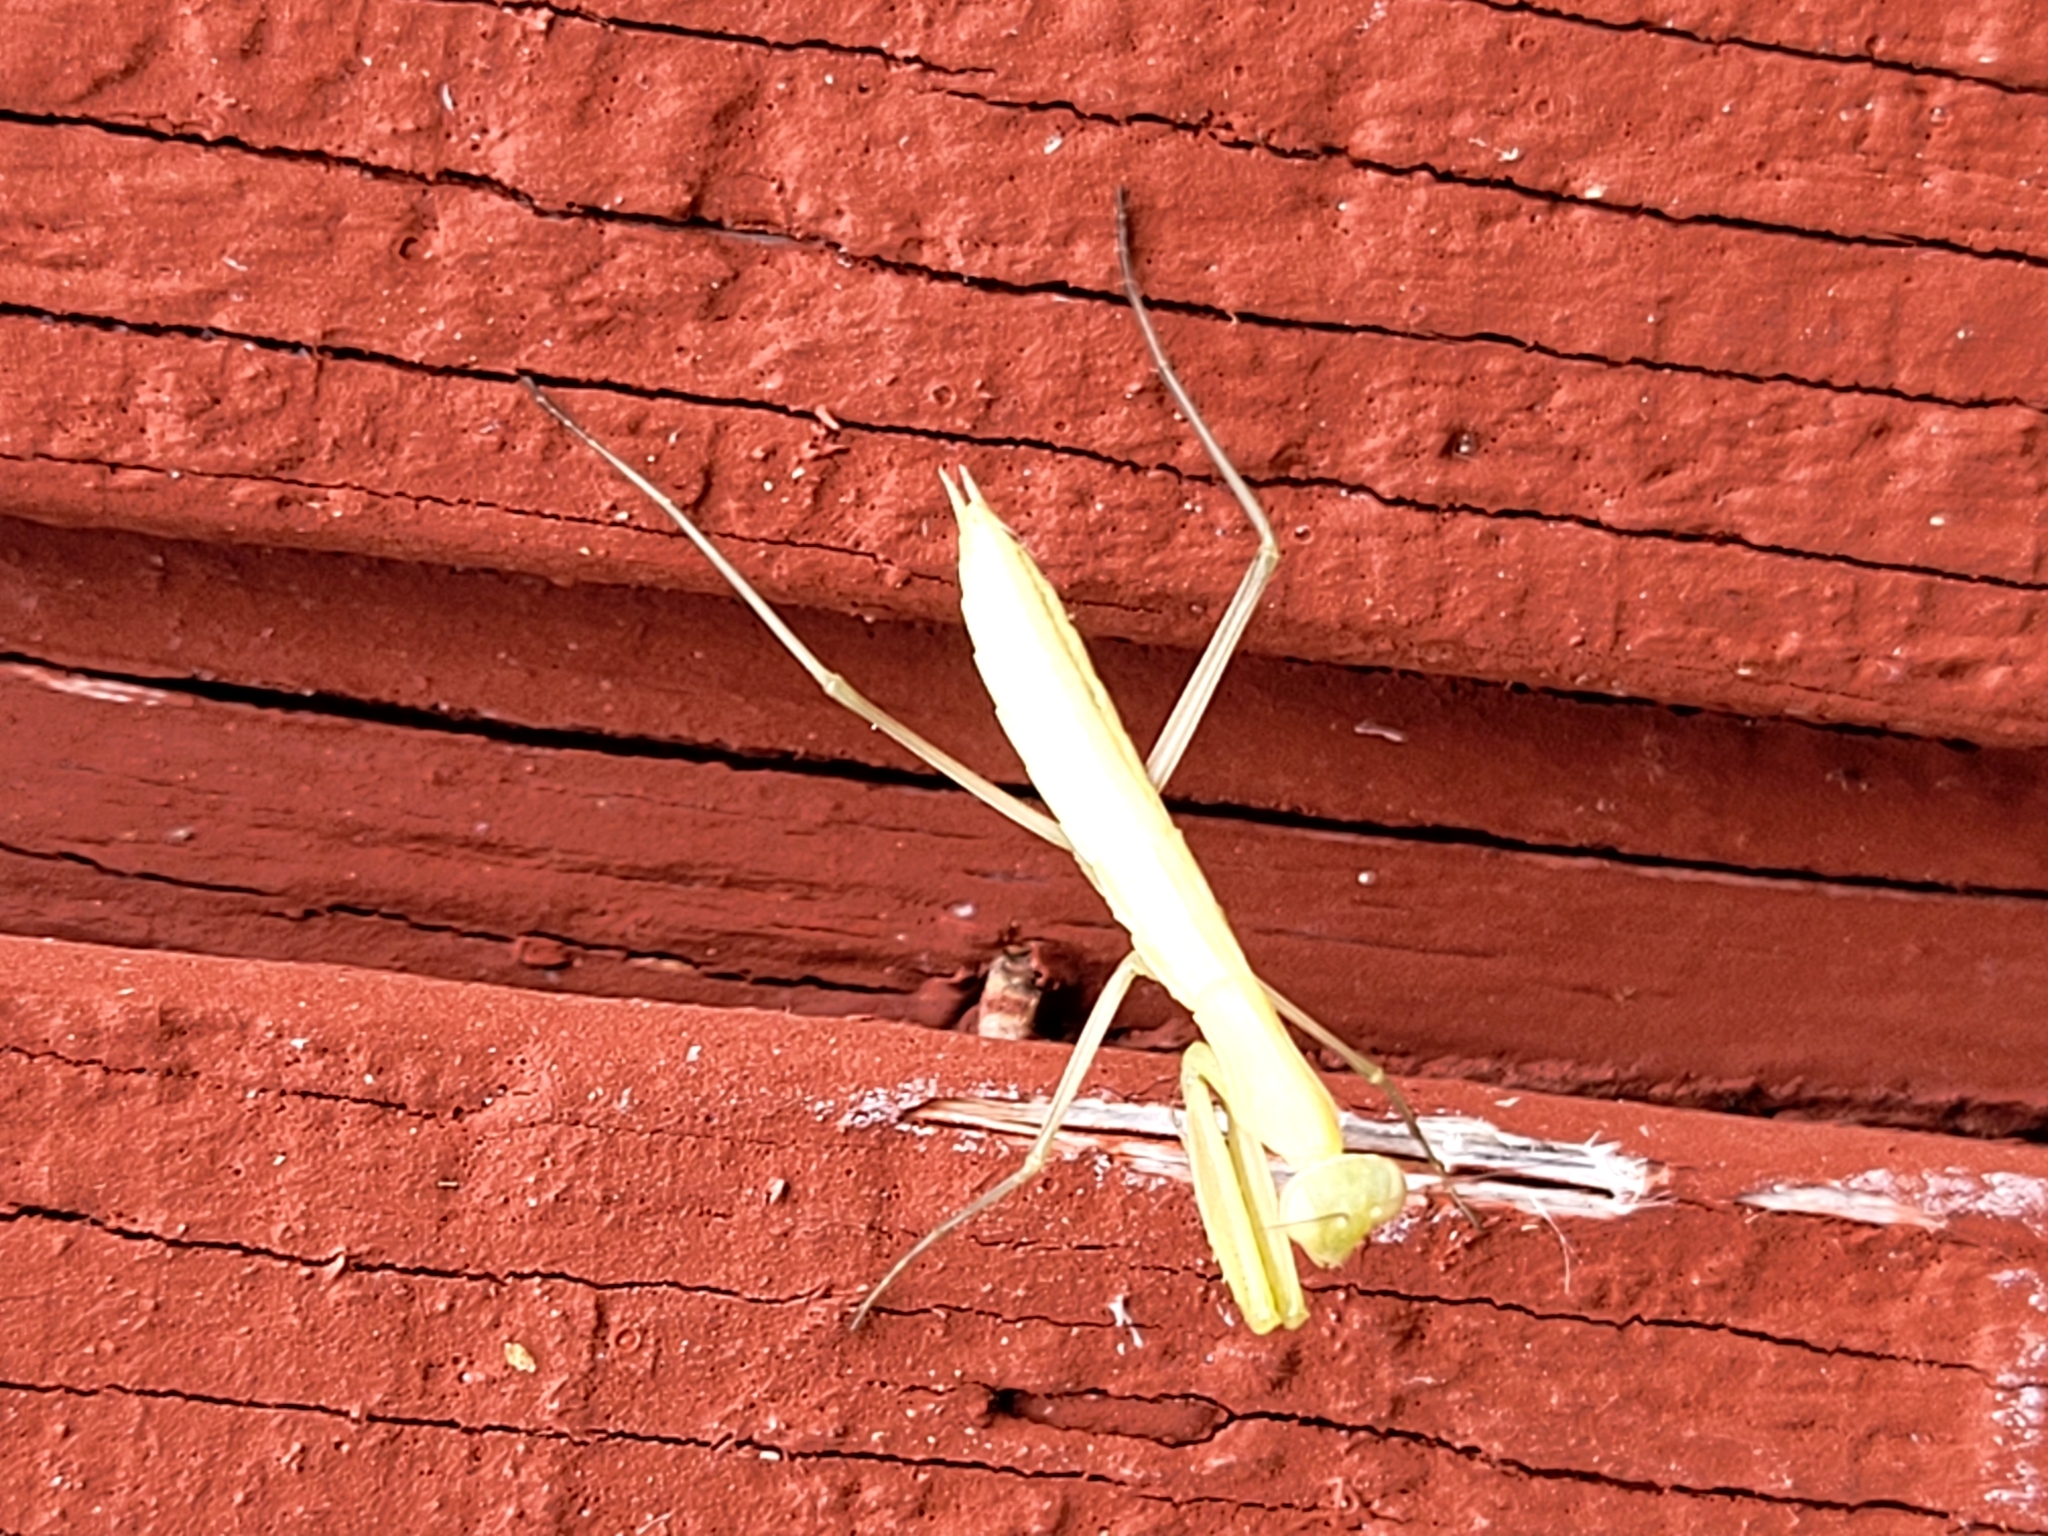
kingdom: Animalia
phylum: Arthropoda
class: Insecta
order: Mantodea
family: Mantidae
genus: Mantis
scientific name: Mantis religiosa
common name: Praying mantis
